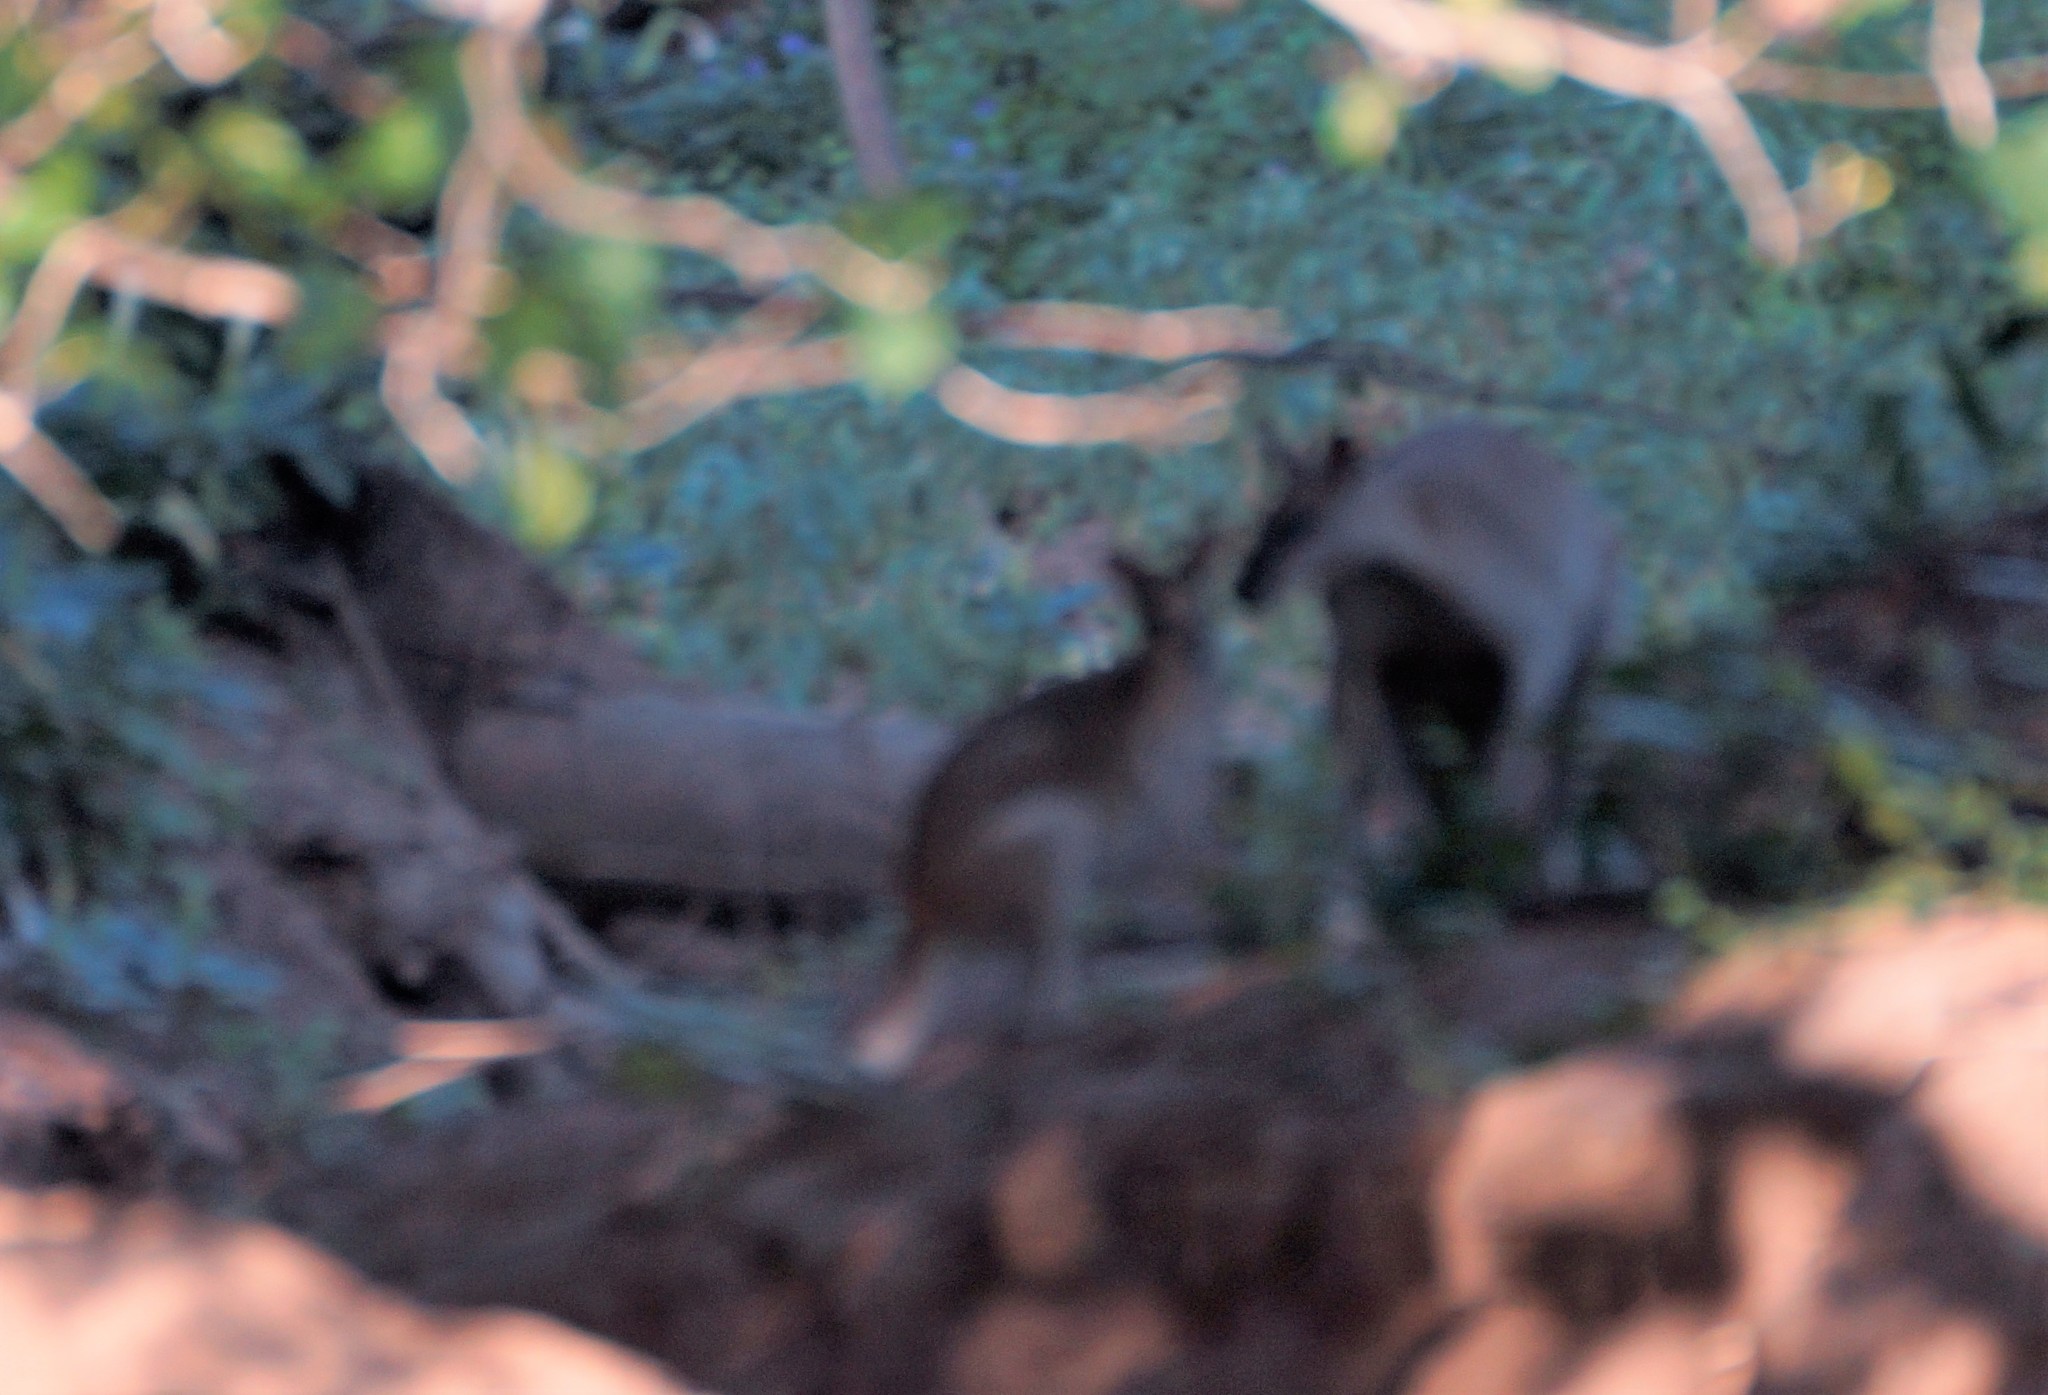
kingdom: Animalia
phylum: Chordata
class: Mammalia
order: Diprotodontia
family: Macropodidae
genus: Macropus
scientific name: Macropus agilis
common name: Agile wallaby
